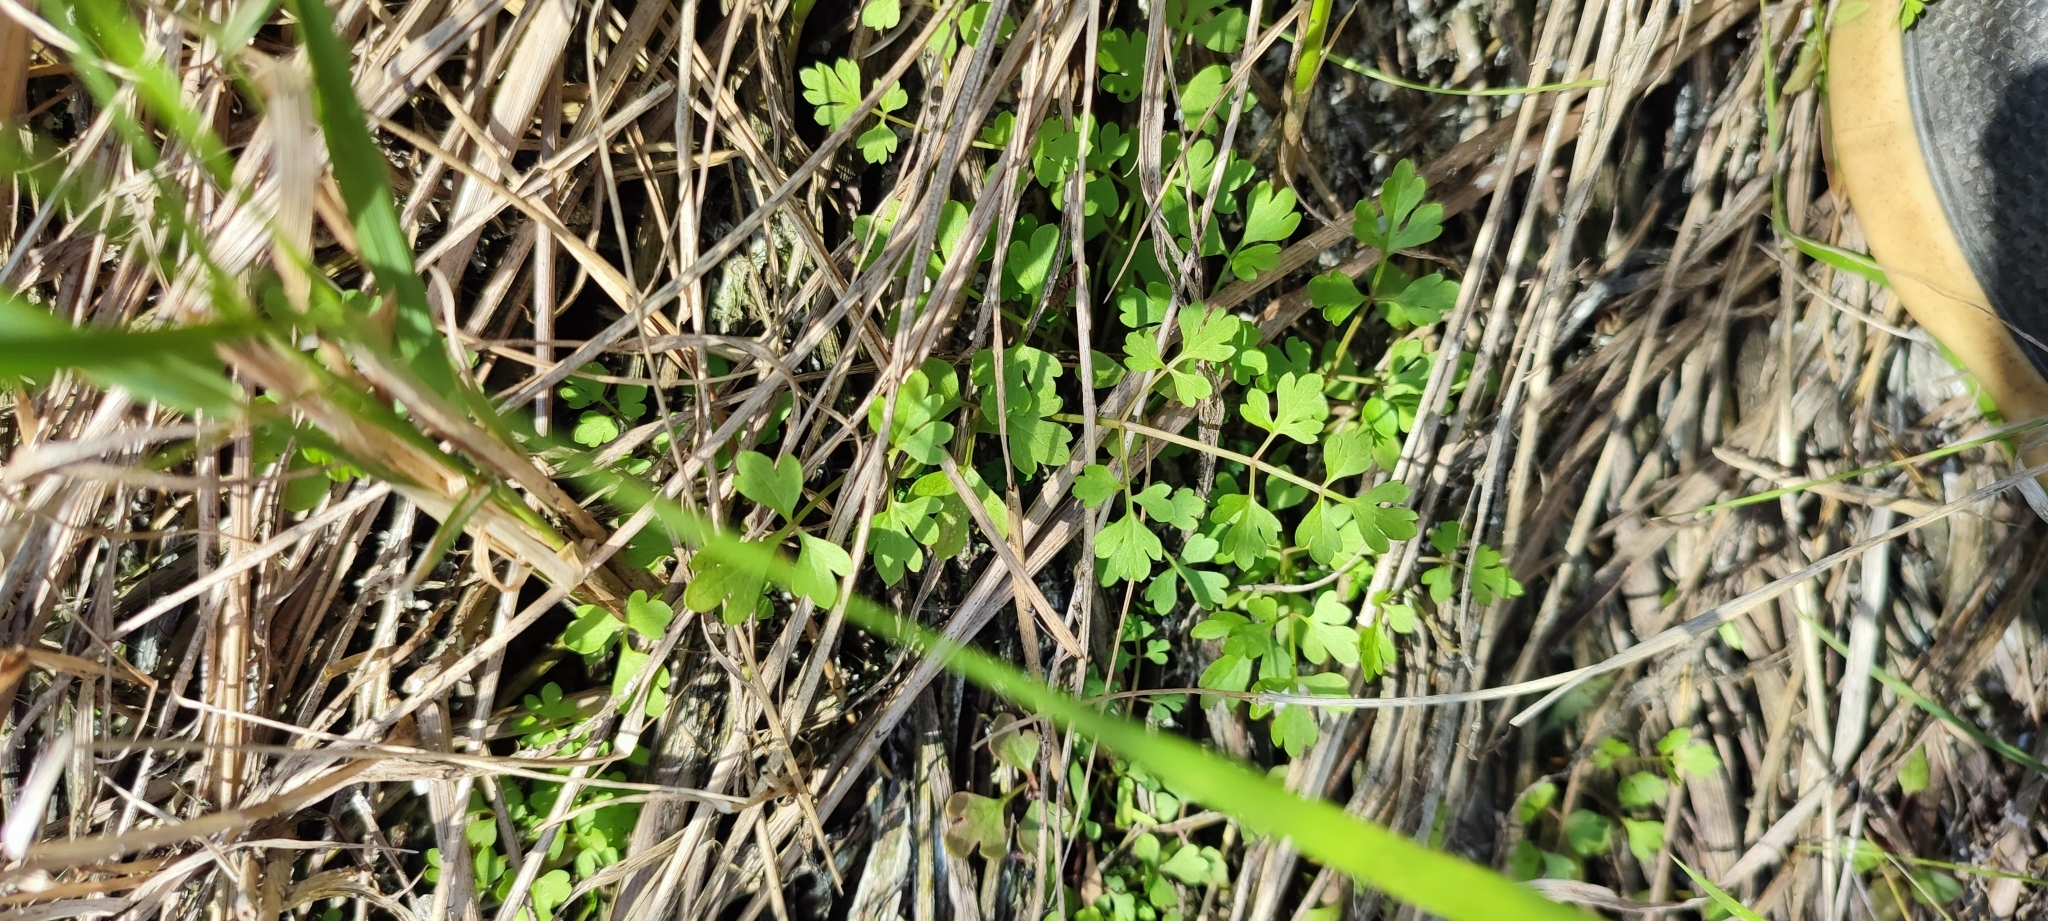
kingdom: Plantae
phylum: Tracheophyta
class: Magnoliopsida
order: Apiales
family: Apiaceae
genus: Oenanthe
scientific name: Oenanthe aquatica
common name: Fine-leaved water-dropwort
